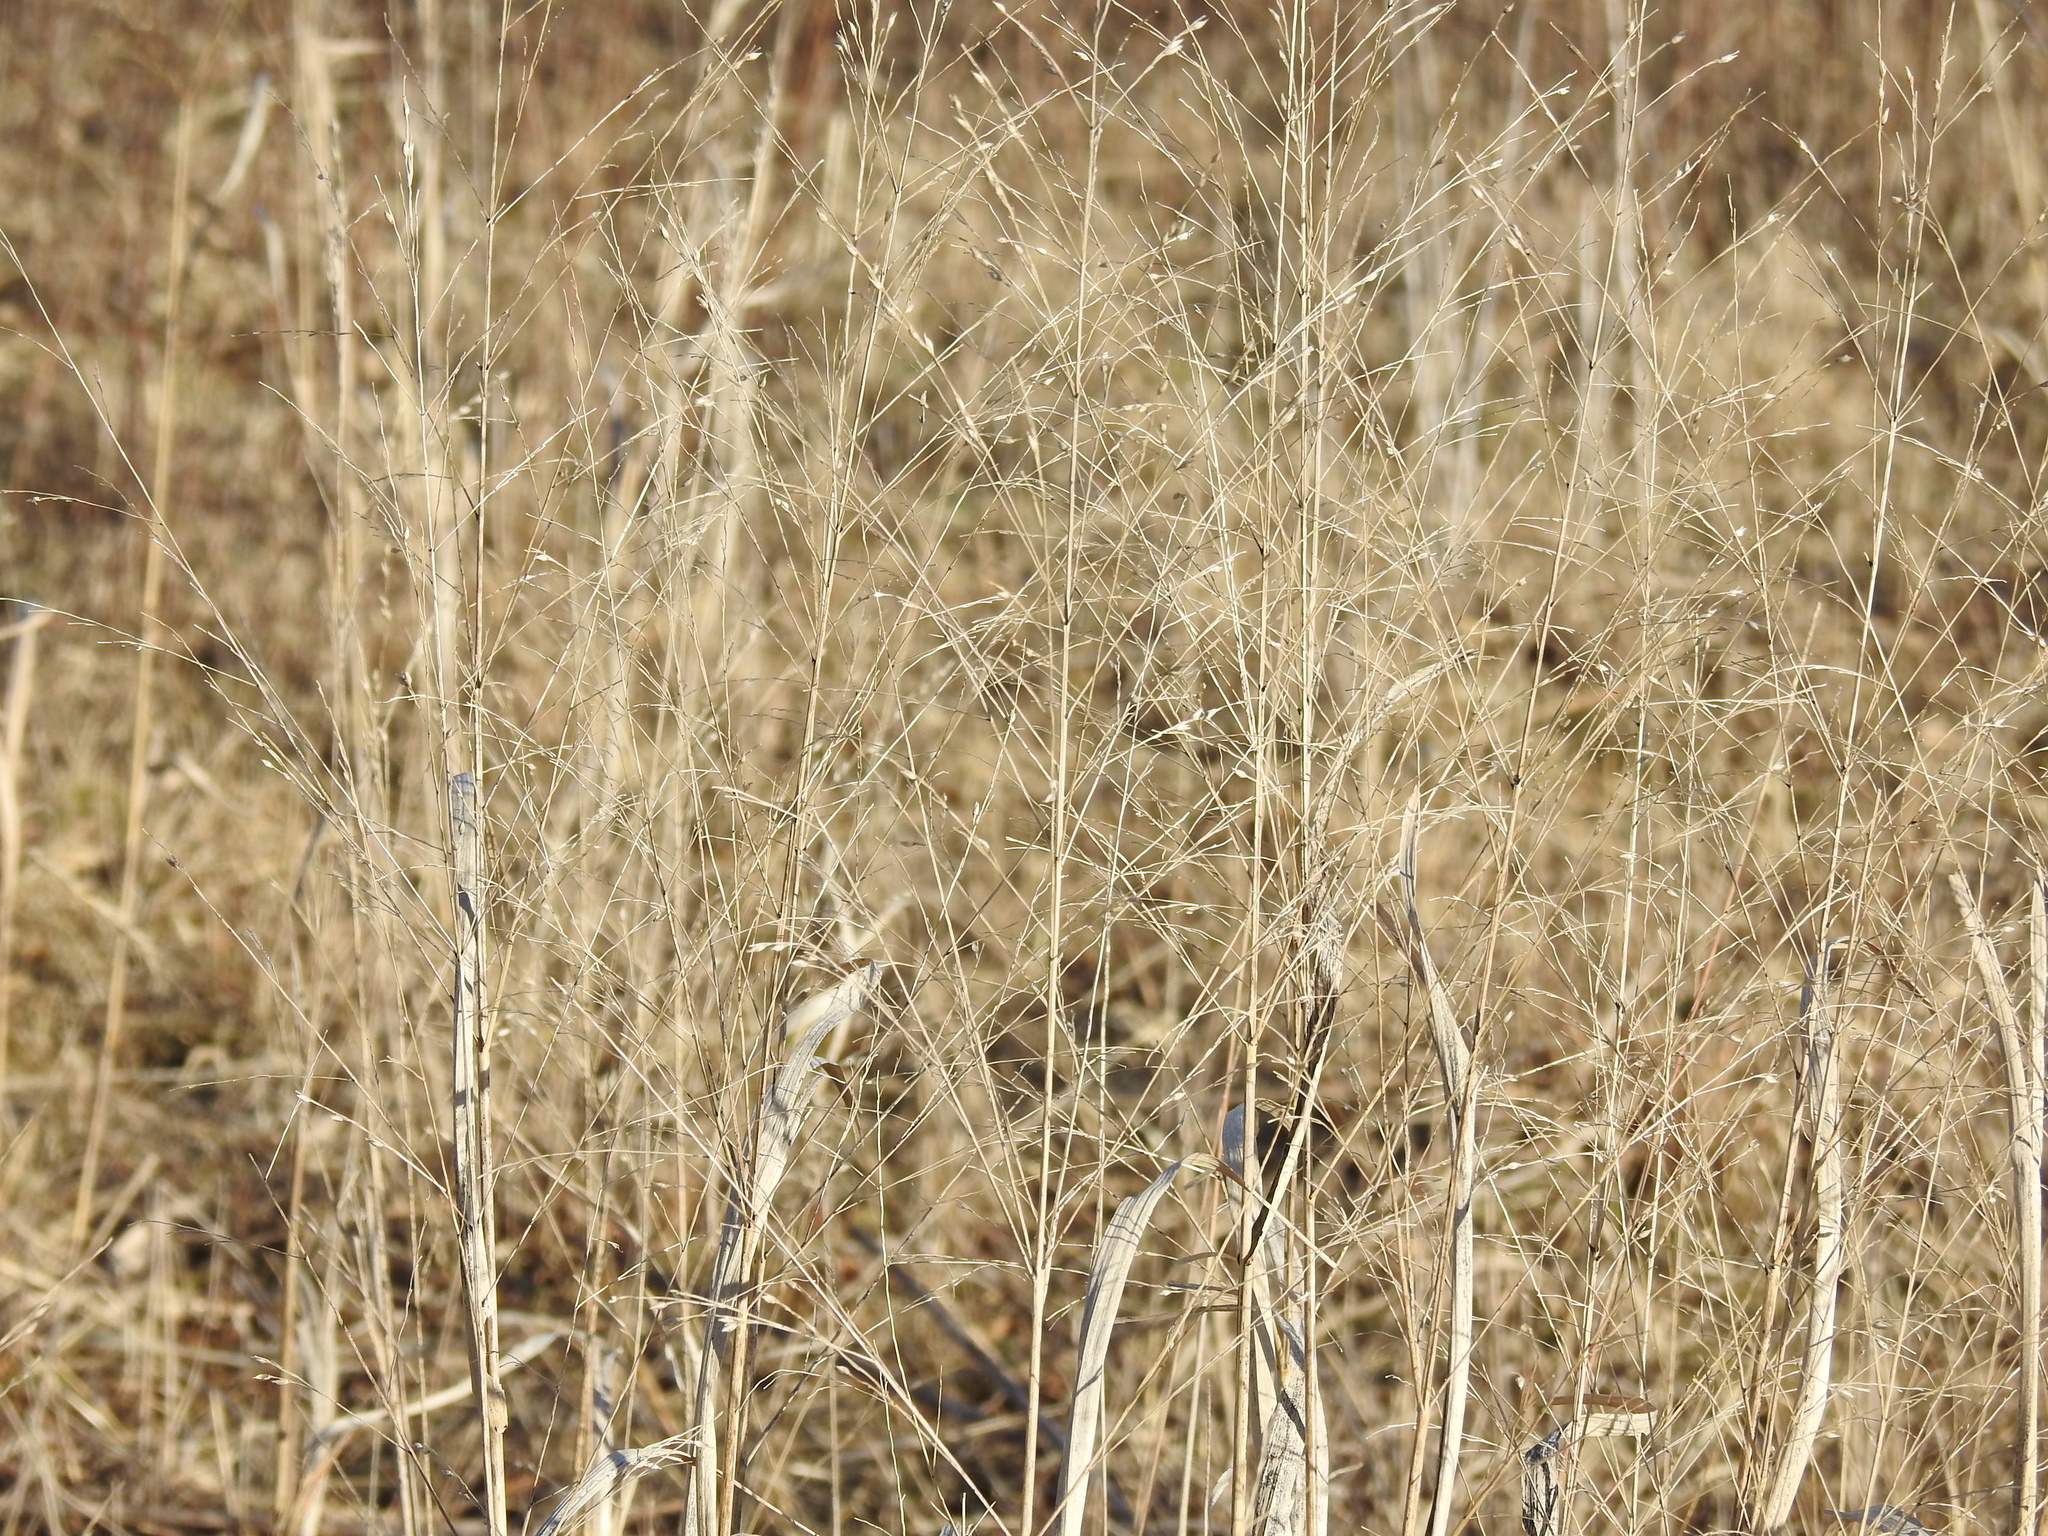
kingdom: Plantae
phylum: Tracheophyta
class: Liliopsida
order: Poales
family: Poaceae
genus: Panicum
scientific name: Panicum virgatum
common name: Switchgrass
